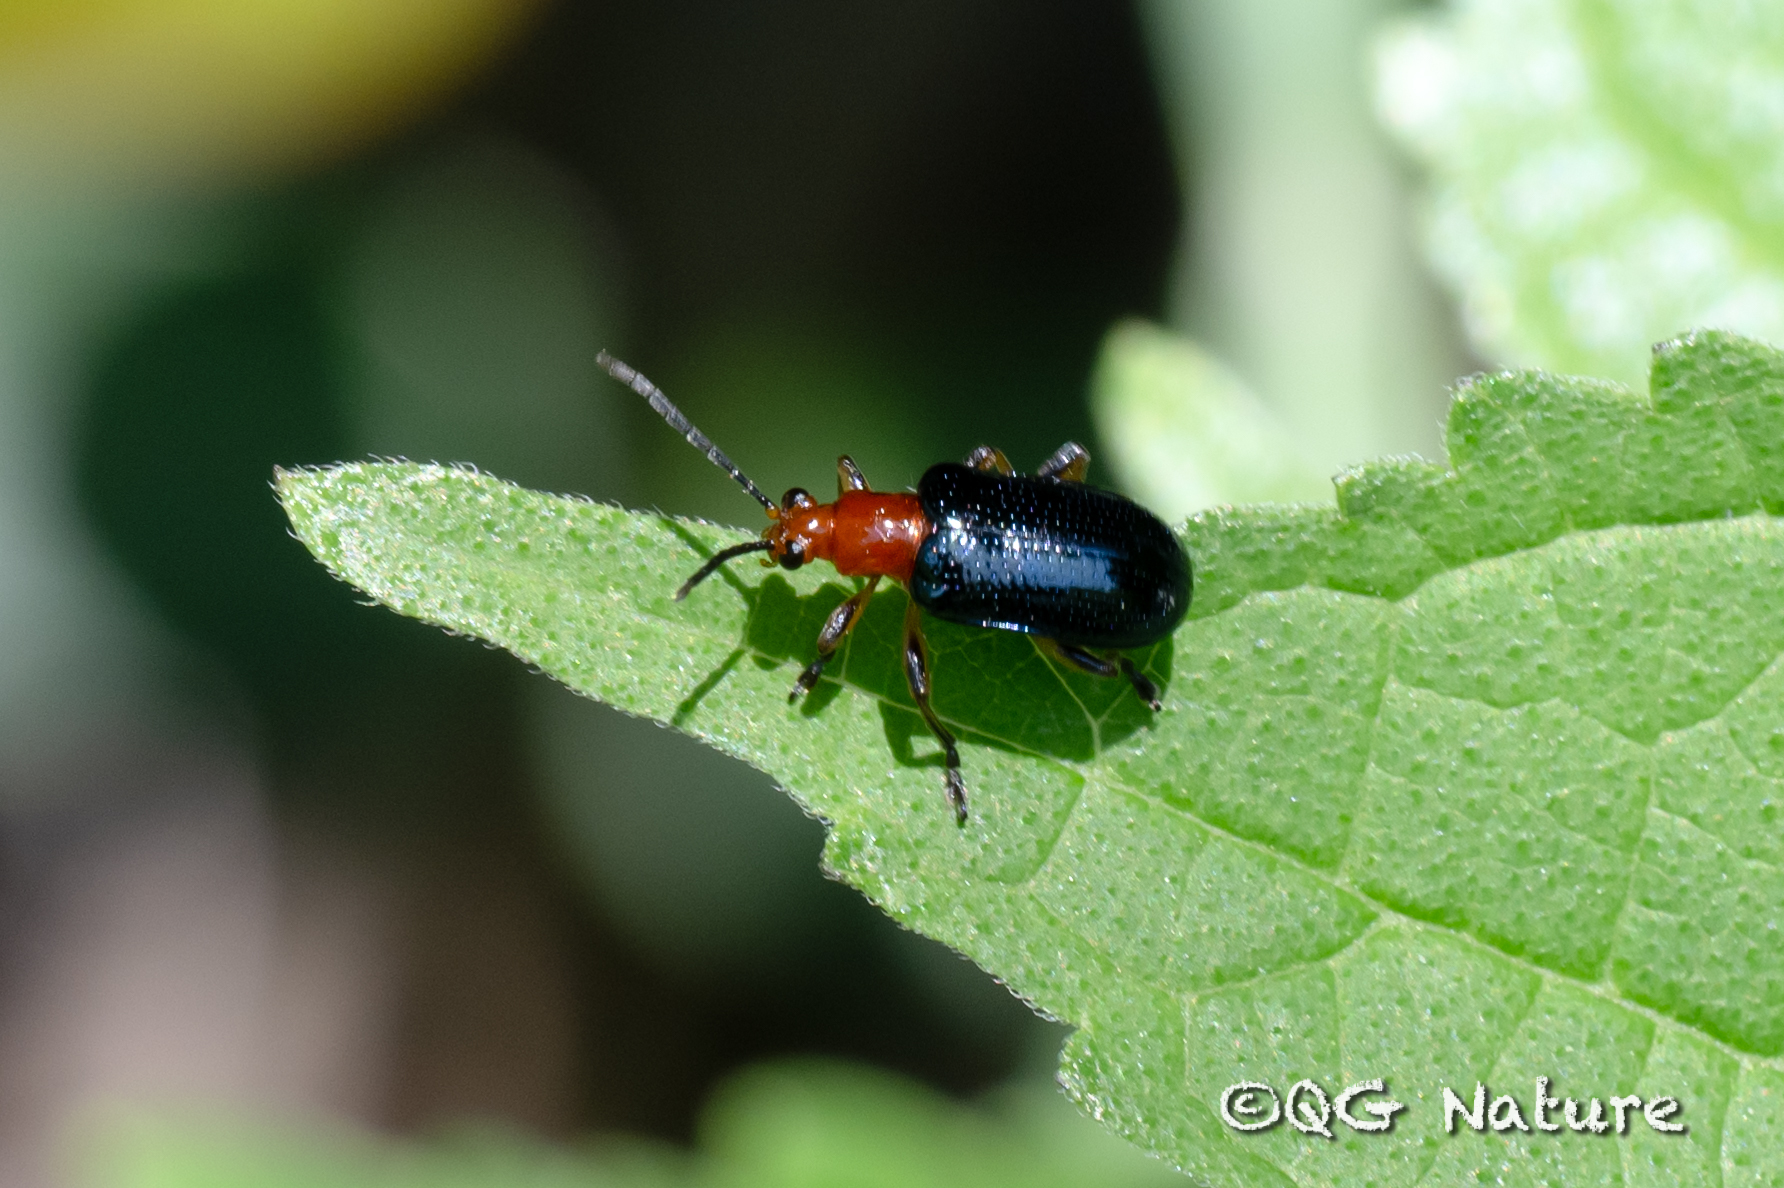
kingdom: Animalia
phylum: Arthropoda
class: Insecta
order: Coleoptera
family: Chrysomelidae
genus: Lema
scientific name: Lema fortunei
